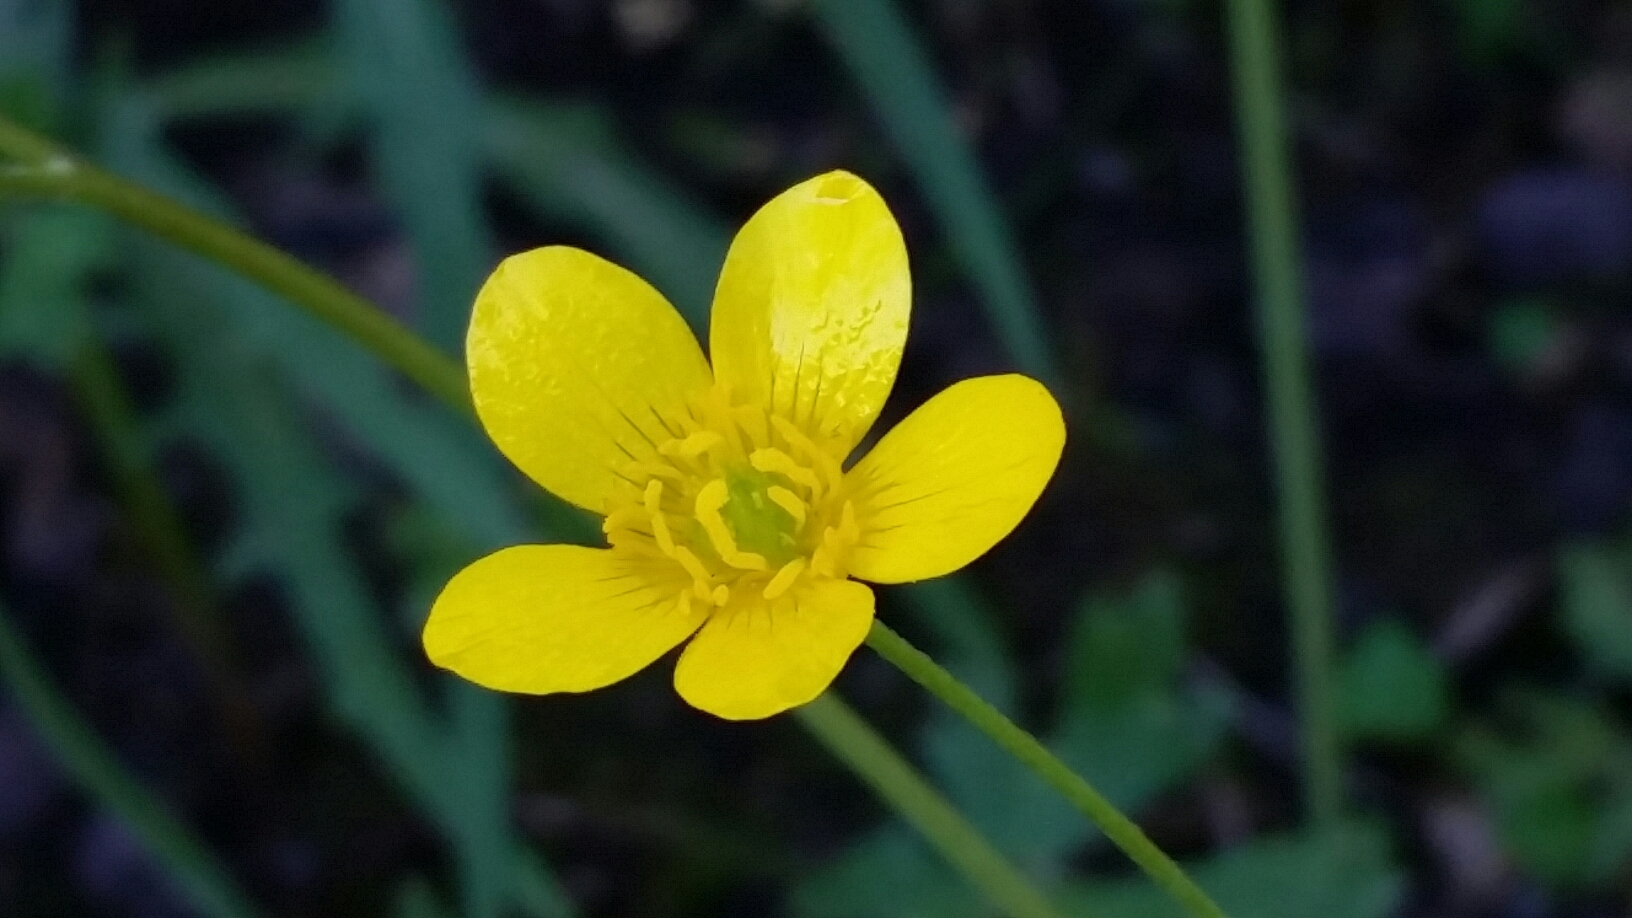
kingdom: Plantae
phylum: Tracheophyta
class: Magnoliopsida
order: Ranunculales
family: Ranunculaceae
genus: Ranunculus
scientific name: Ranunculus occidentalis
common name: Western buttercup
